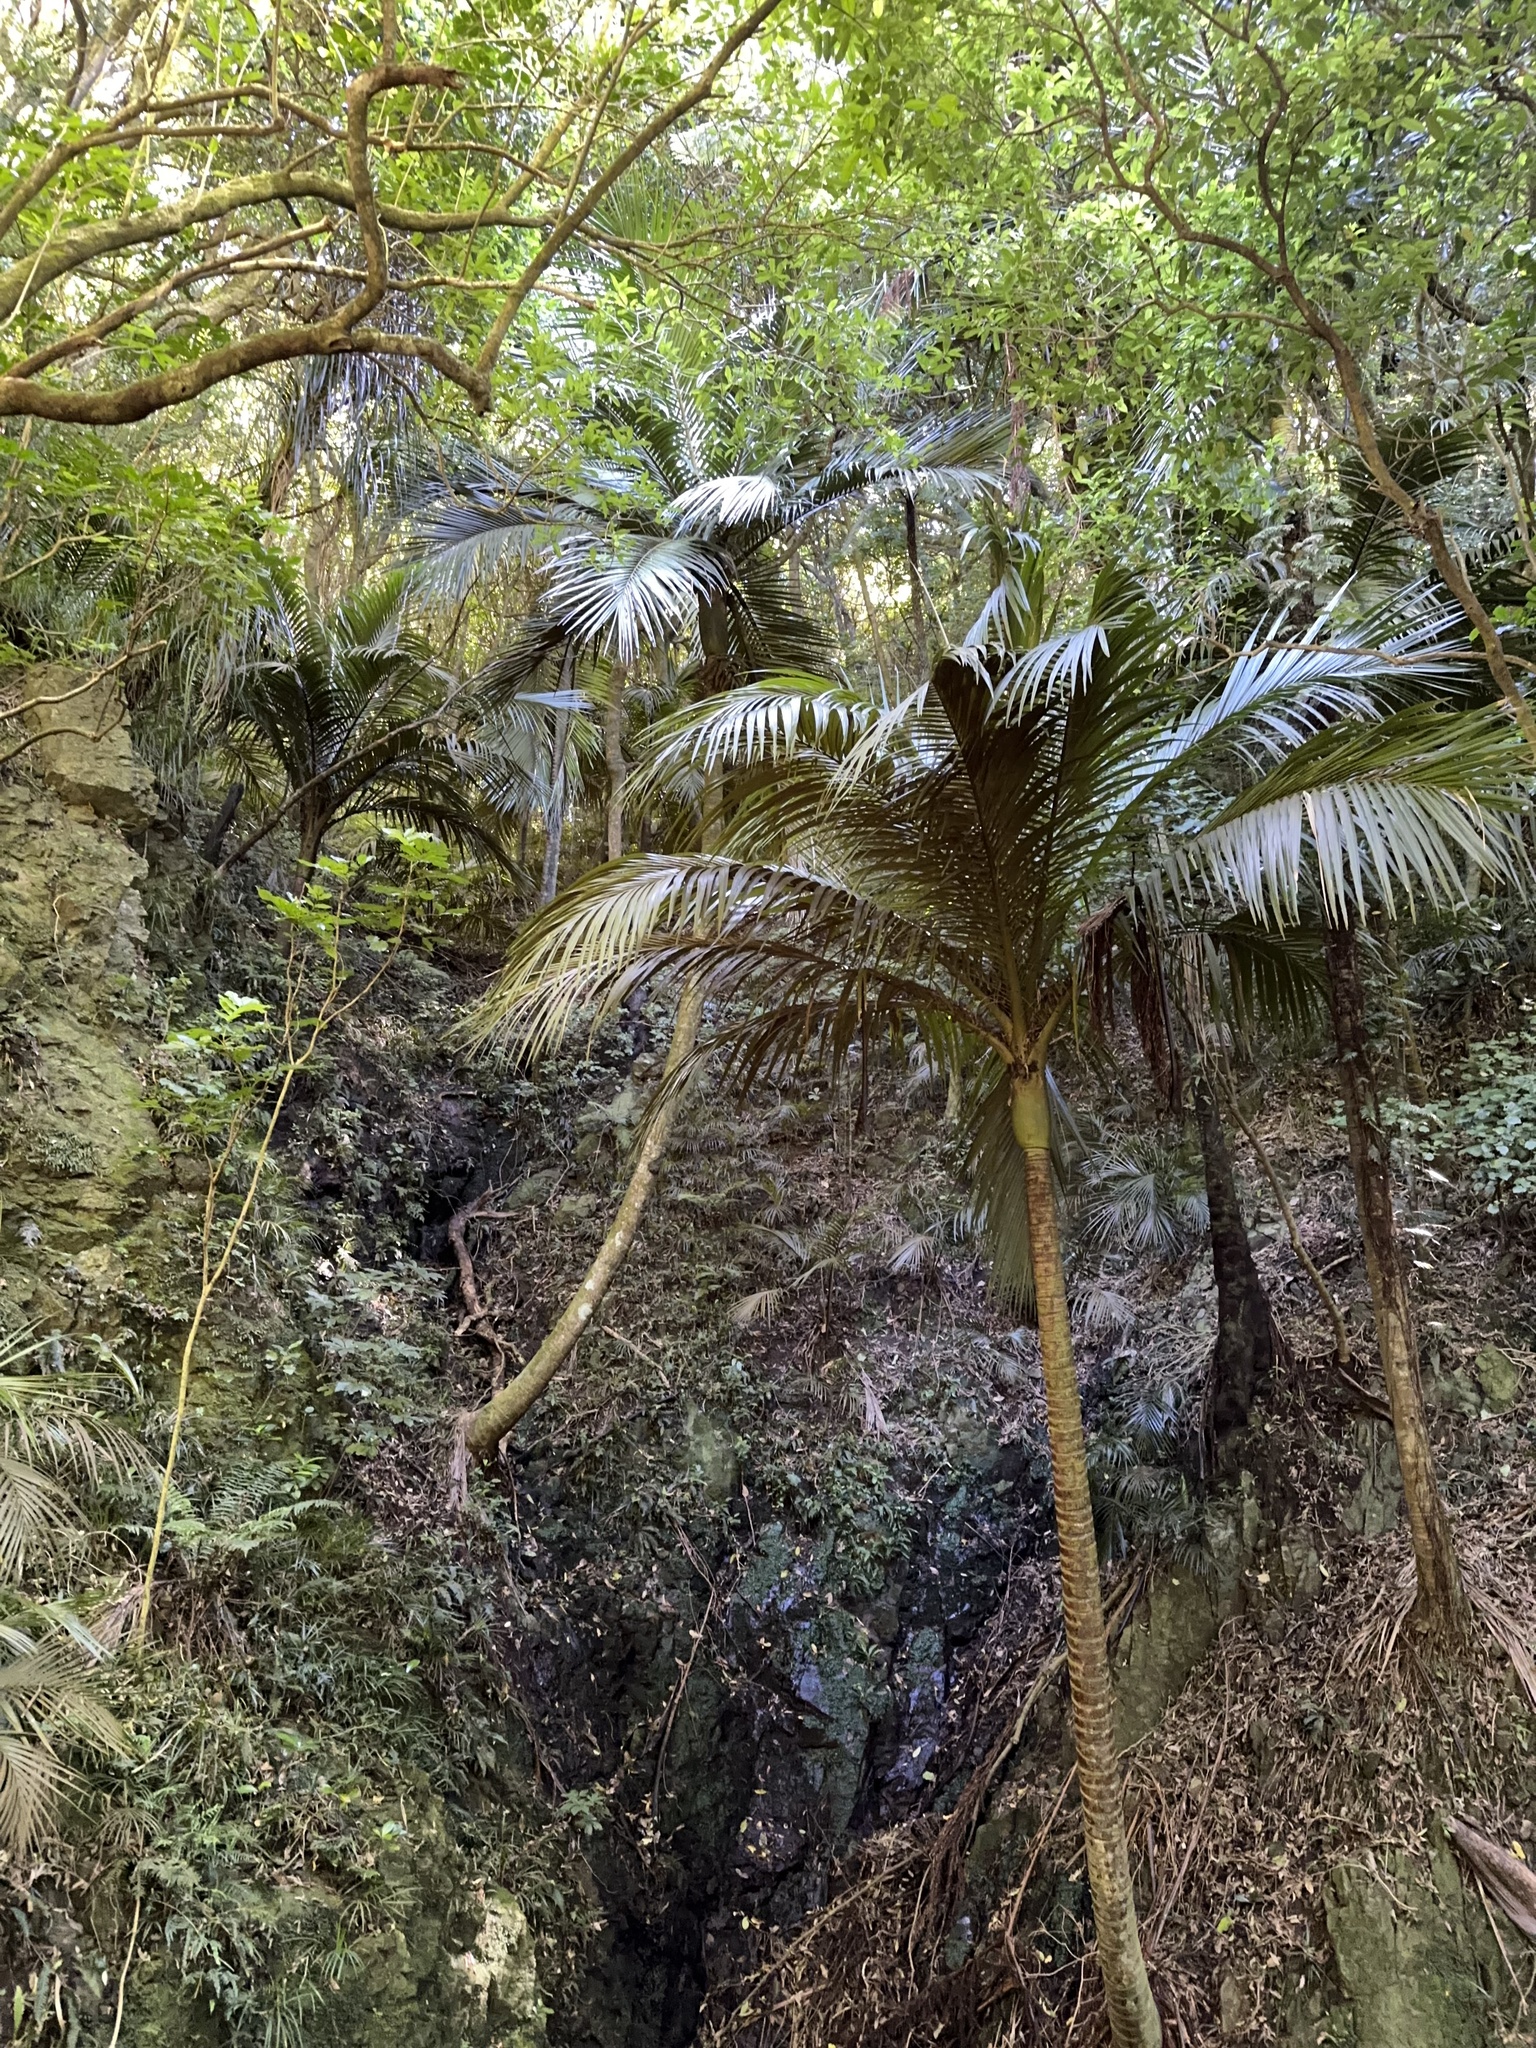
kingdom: Plantae
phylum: Tracheophyta
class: Liliopsida
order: Arecales
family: Arecaceae
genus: Rhopalostylis
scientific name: Rhopalostylis sapida
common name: Feather-duster palm
